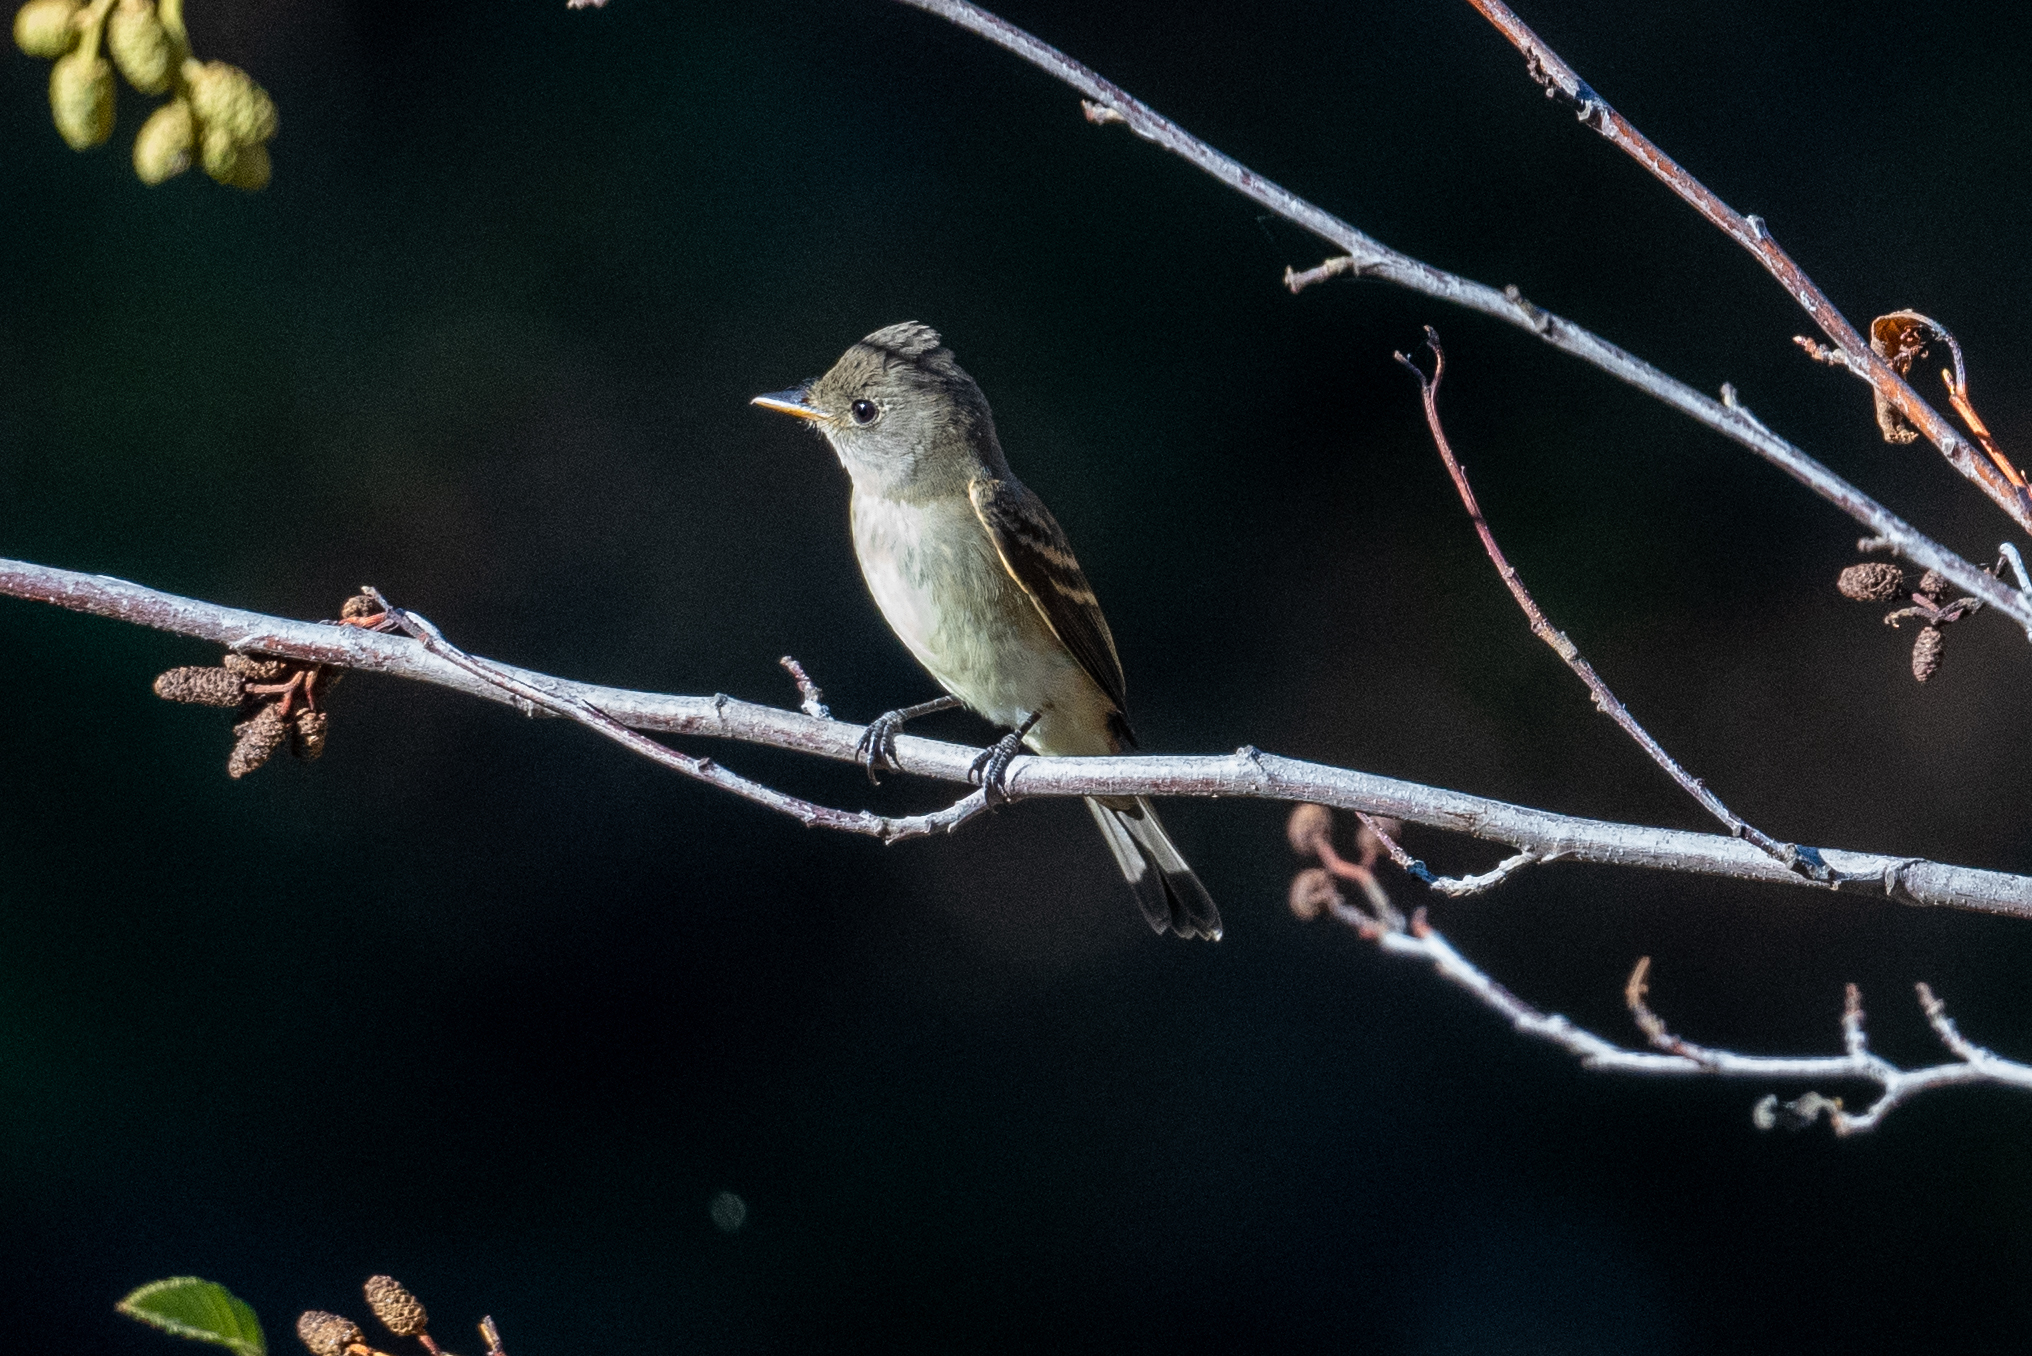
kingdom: Animalia
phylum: Chordata
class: Aves
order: Passeriformes
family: Tyrannidae
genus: Empidonax
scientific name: Empidonax traillii
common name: Willow flycatcher
